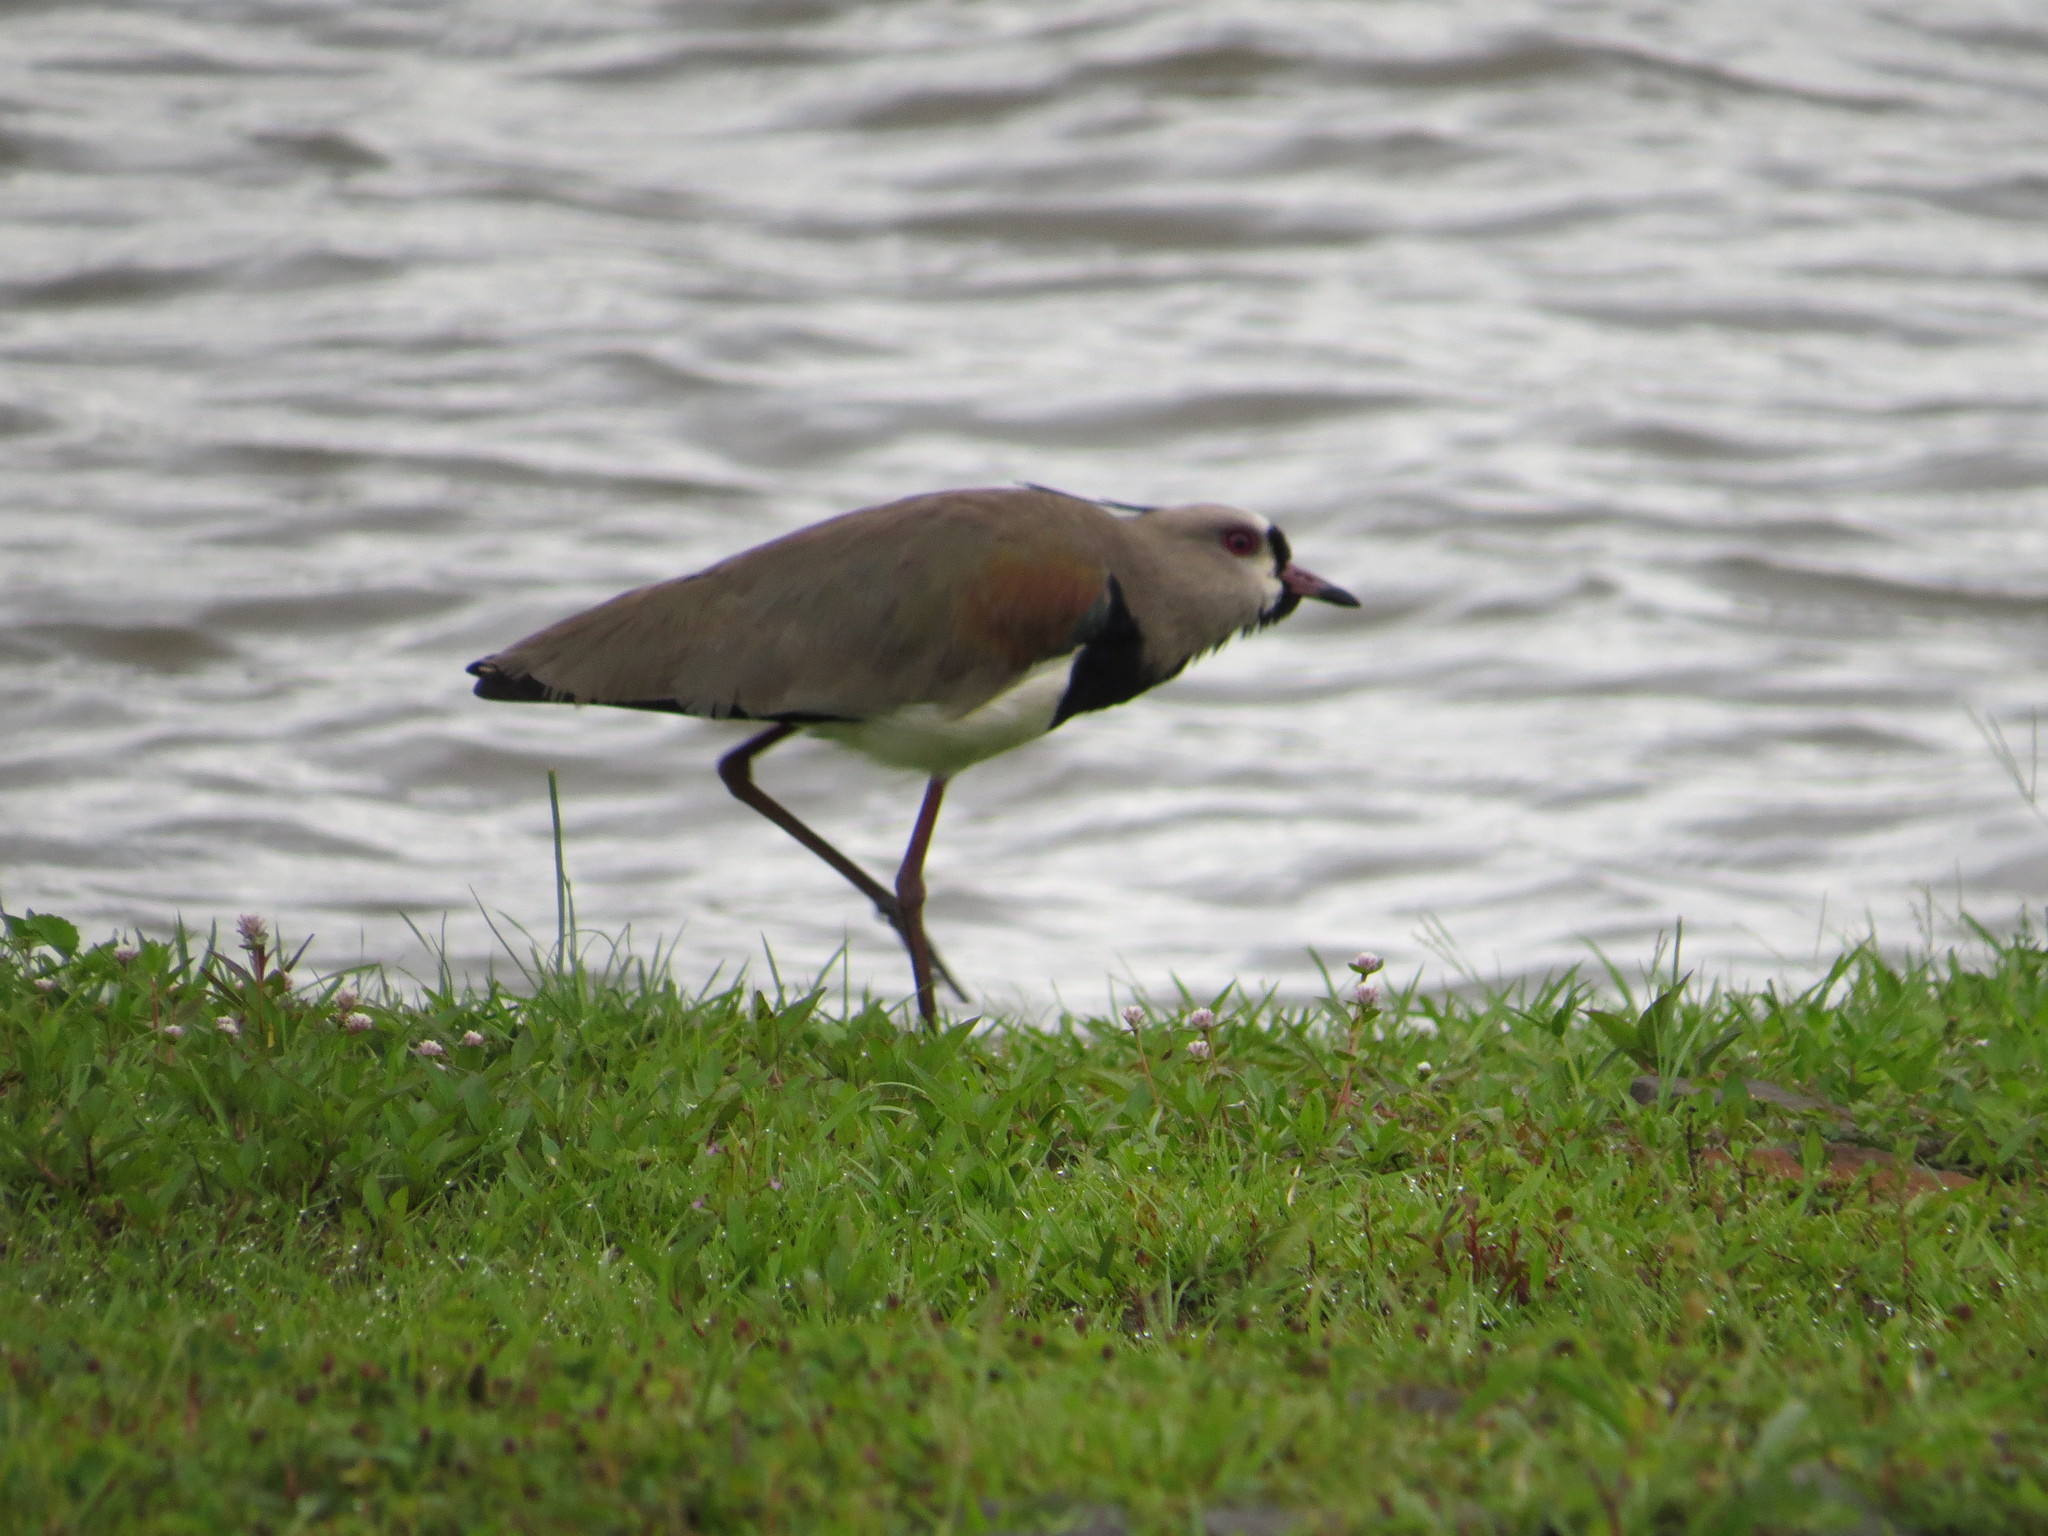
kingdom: Animalia
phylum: Chordata
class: Aves
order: Charadriiformes
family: Charadriidae
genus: Vanellus
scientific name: Vanellus chilensis
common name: Southern lapwing
